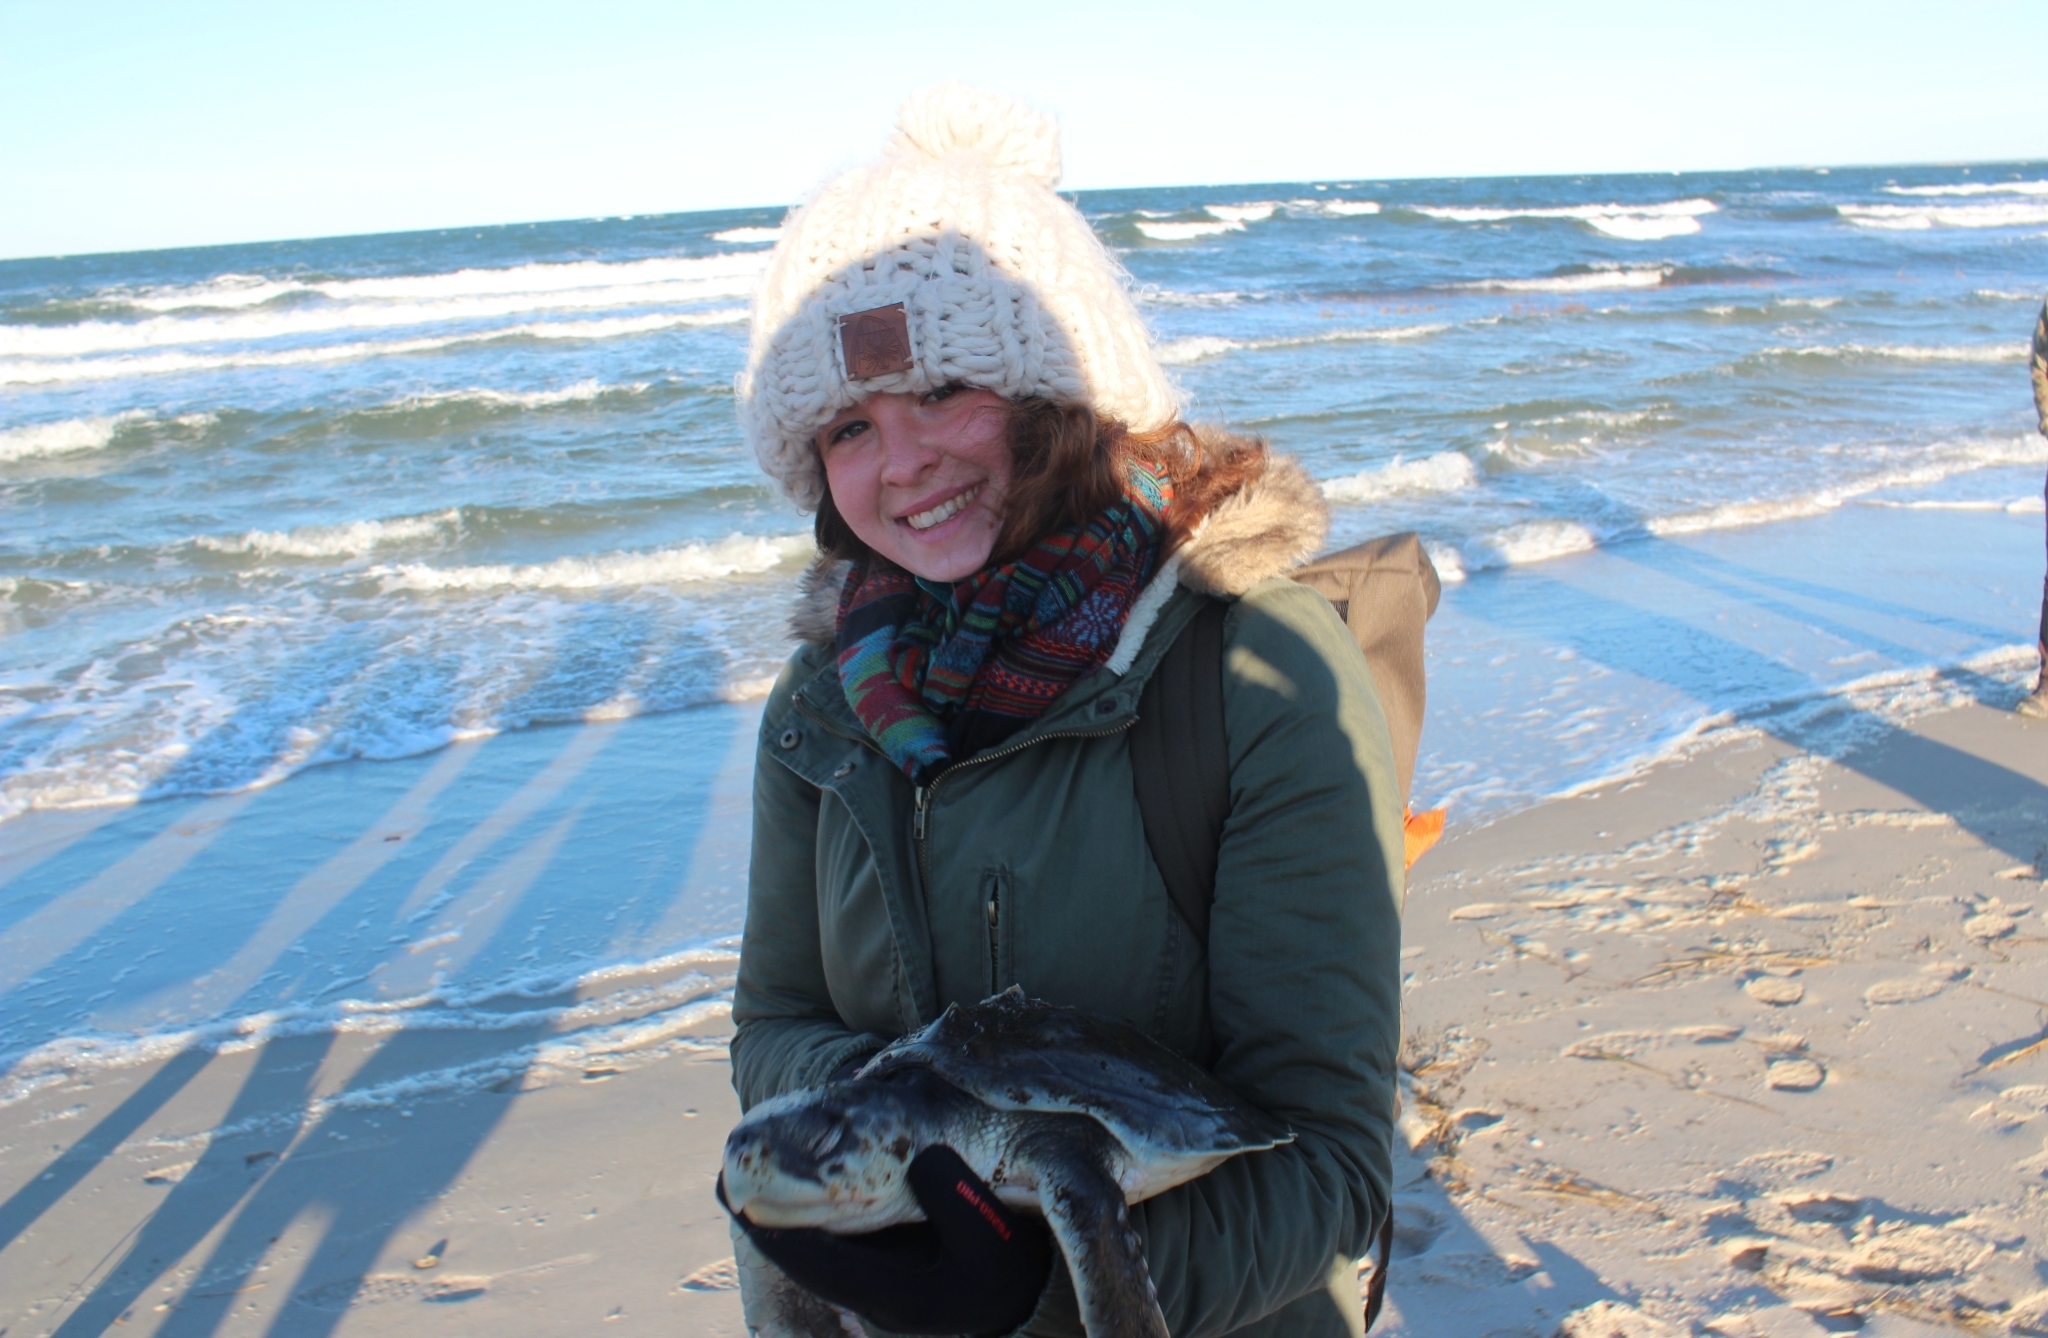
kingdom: Animalia
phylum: Chordata
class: Testudines
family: Cheloniidae
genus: Lepidochelys
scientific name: Lepidochelys kempii
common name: Kemp's ridley turtle
